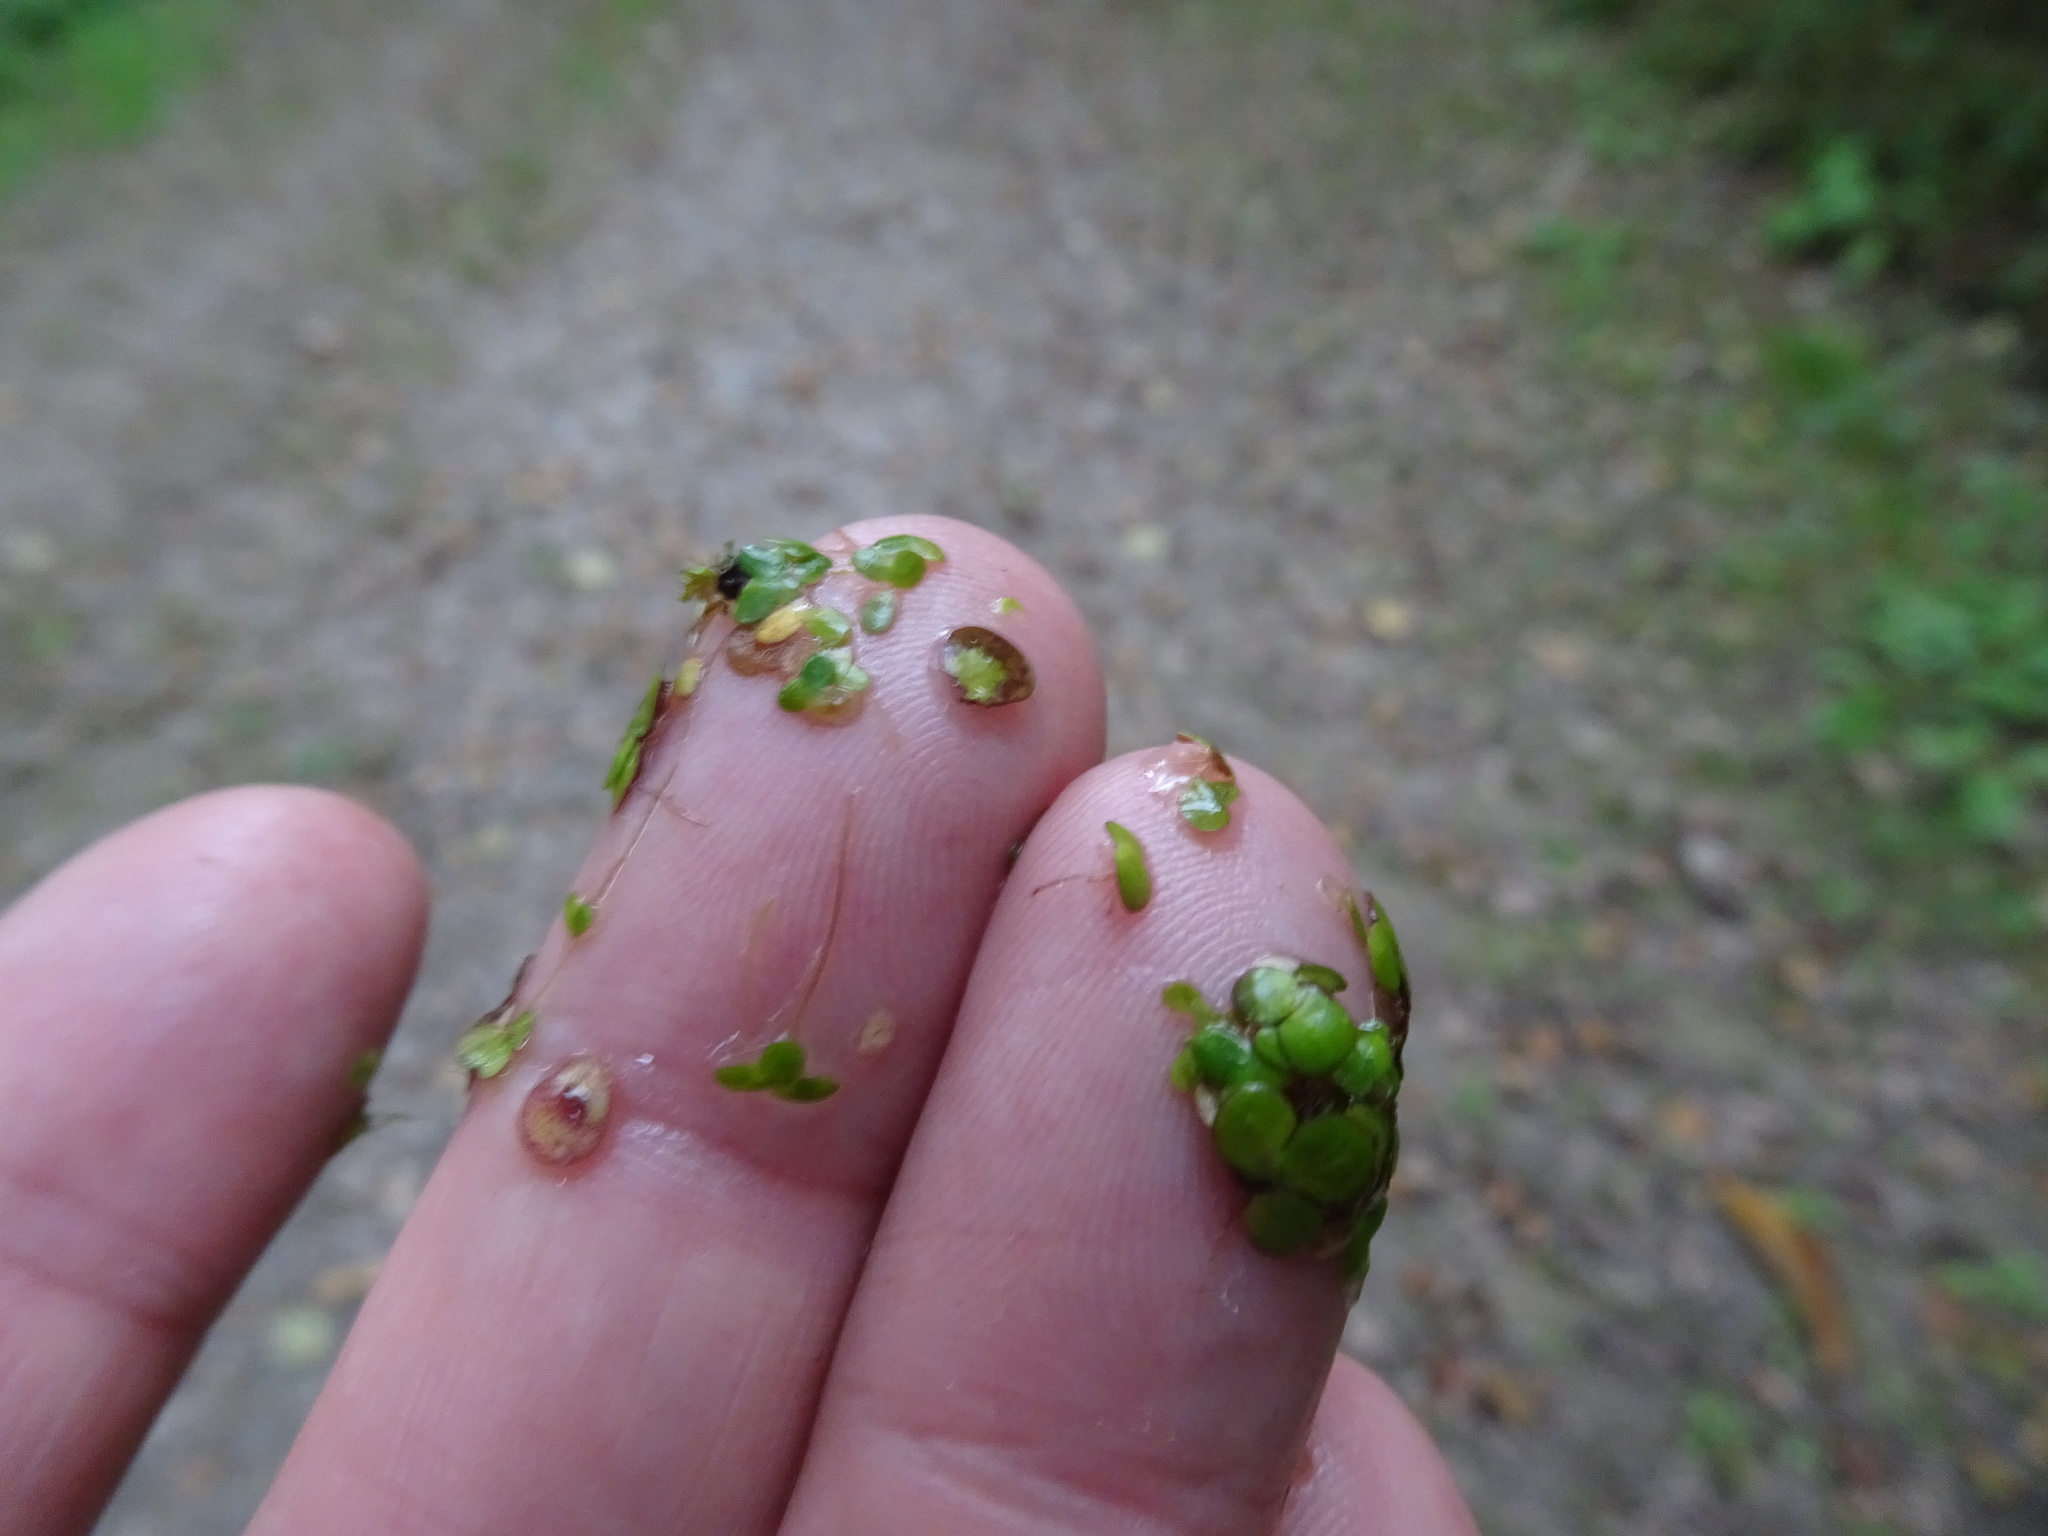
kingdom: Plantae
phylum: Tracheophyta
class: Liliopsida
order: Alismatales
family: Araceae
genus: Lemna
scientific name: Lemna minor
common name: Common duckweed
